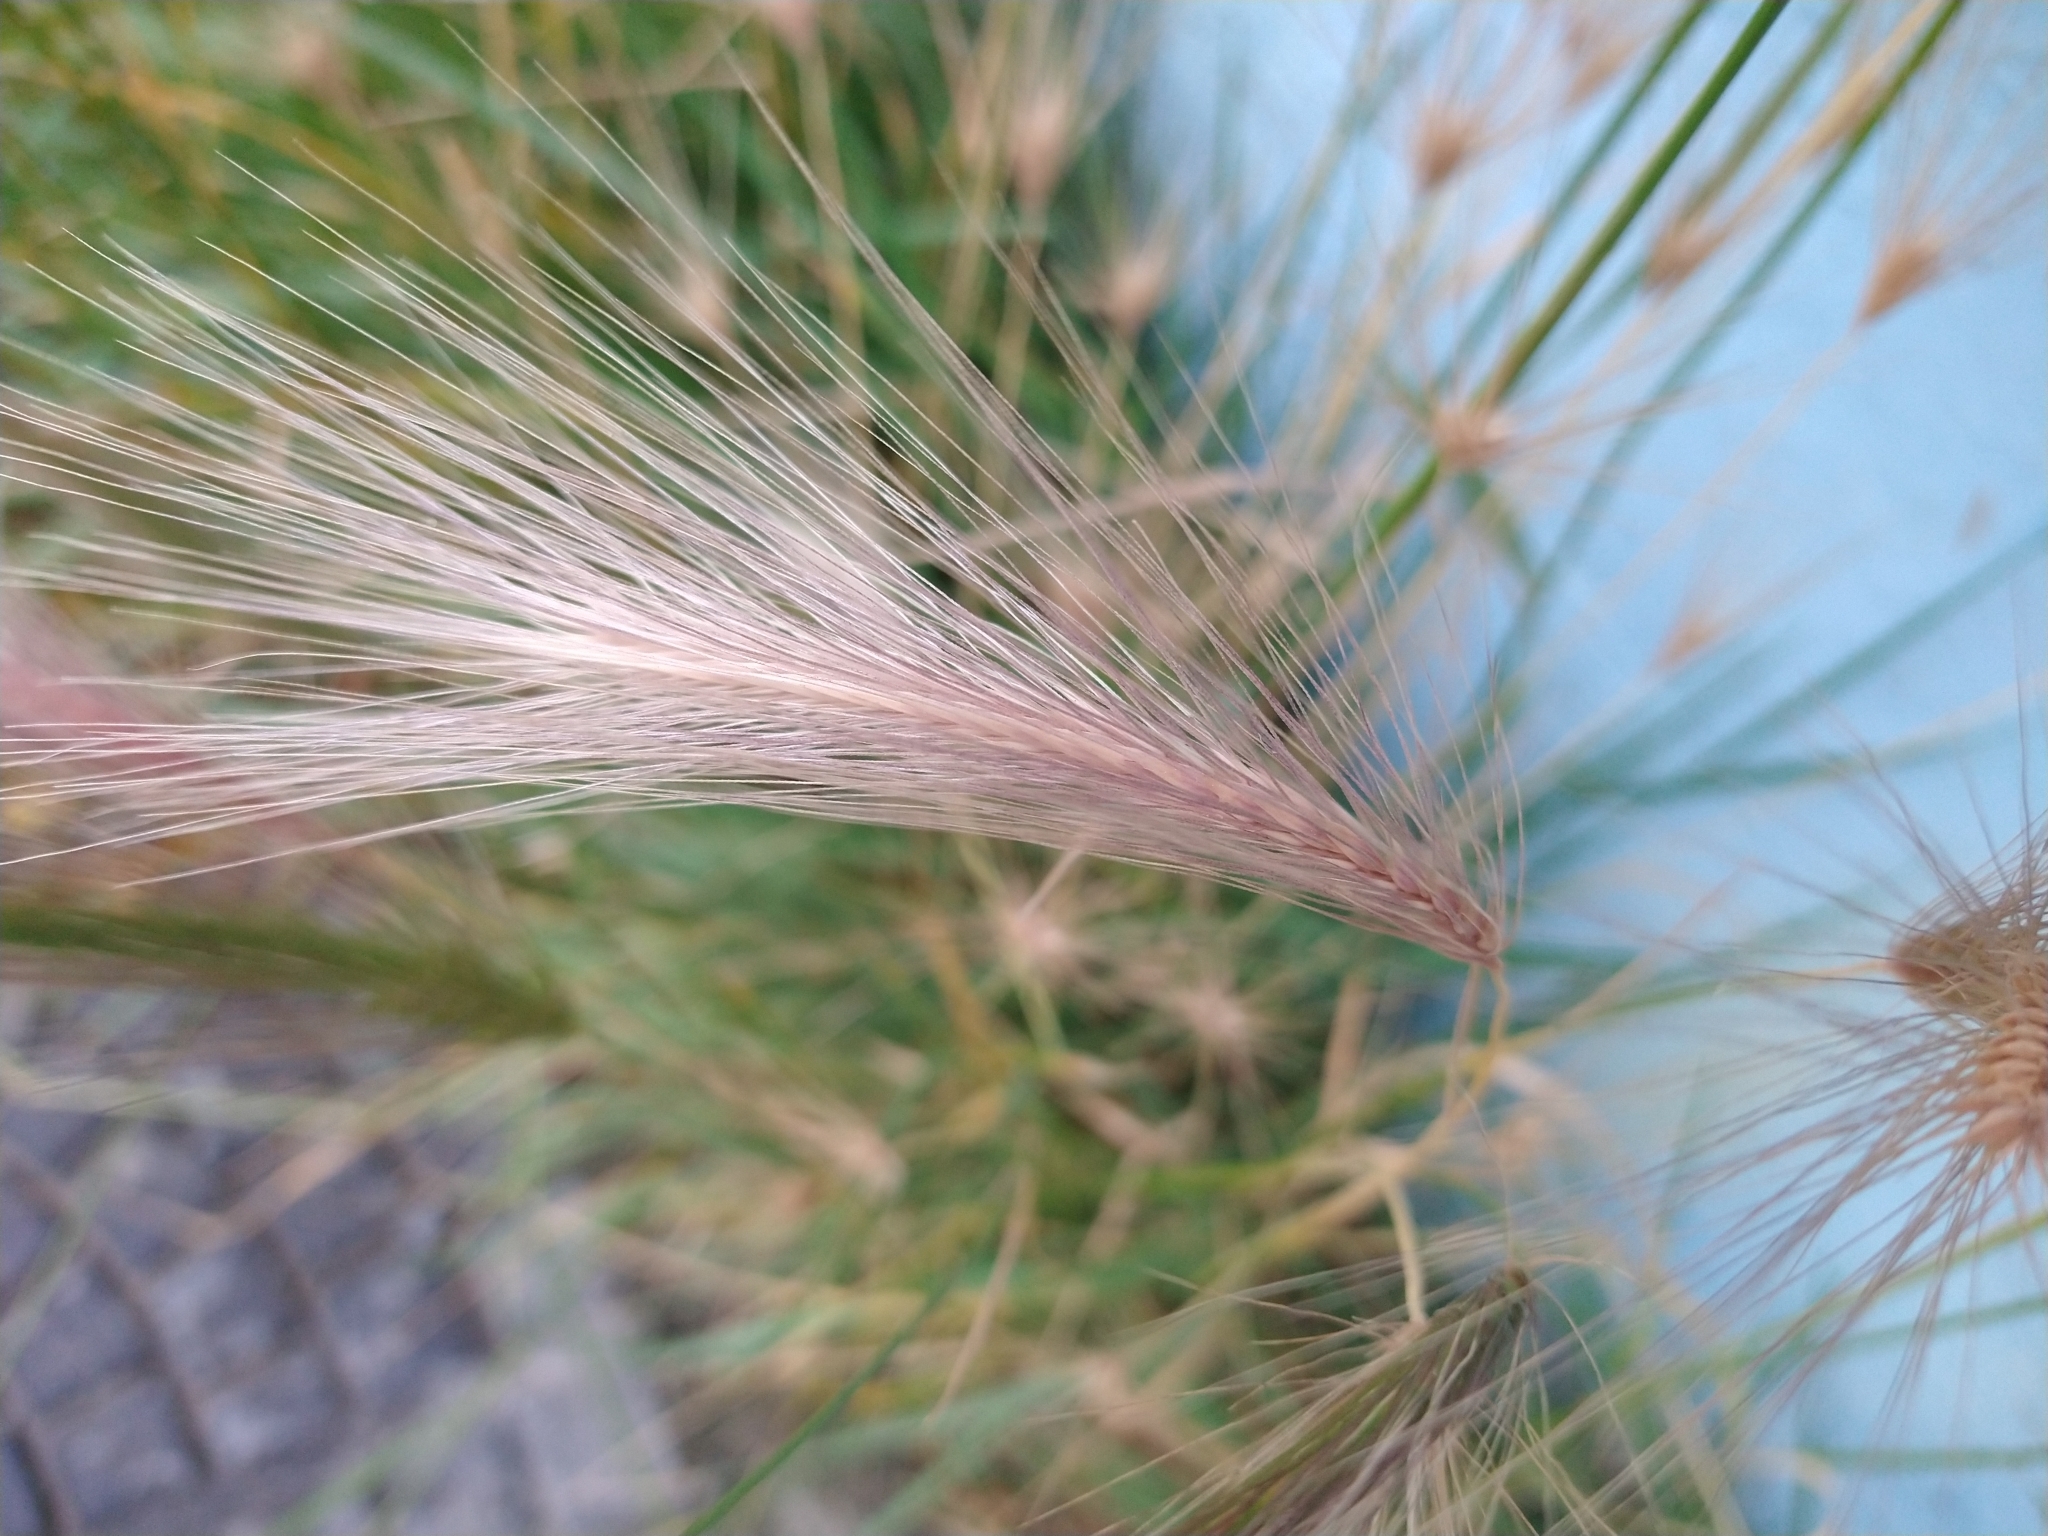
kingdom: Plantae
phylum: Tracheophyta
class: Liliopsida
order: Poales
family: Poaceae
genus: Hordeum
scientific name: Hordeum
